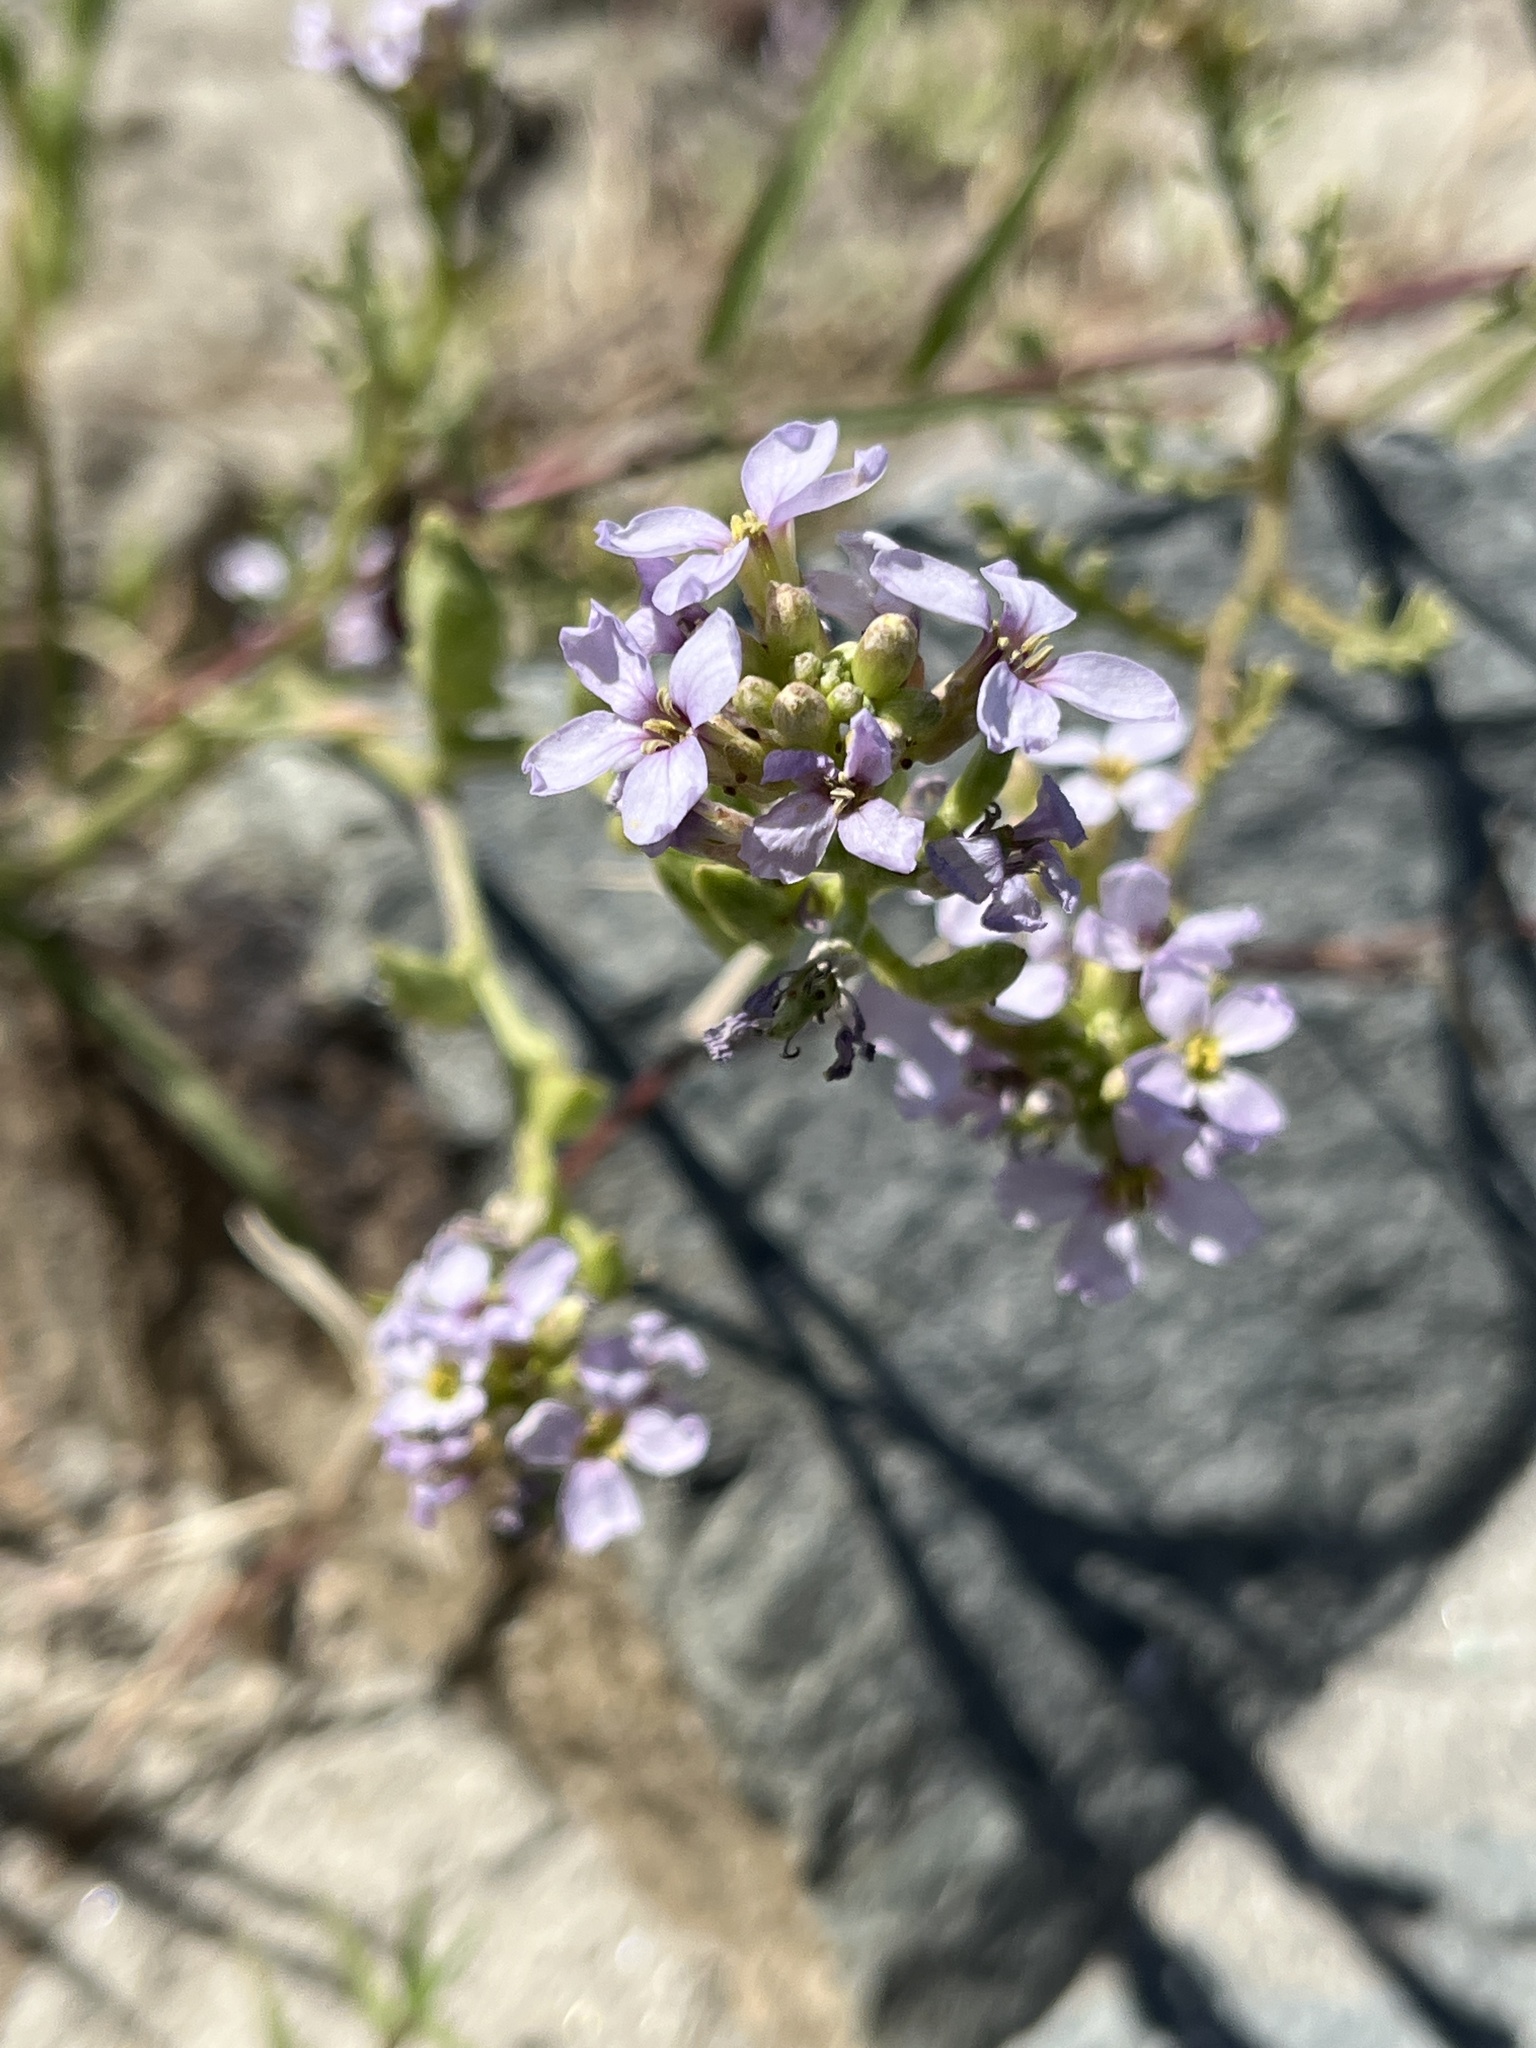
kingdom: Plantae
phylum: Tracheophyta
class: Magnoliopsida
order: Brassicales
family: Brassicaceae
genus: Cakile
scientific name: Cakile maritima
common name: Sea rocket
